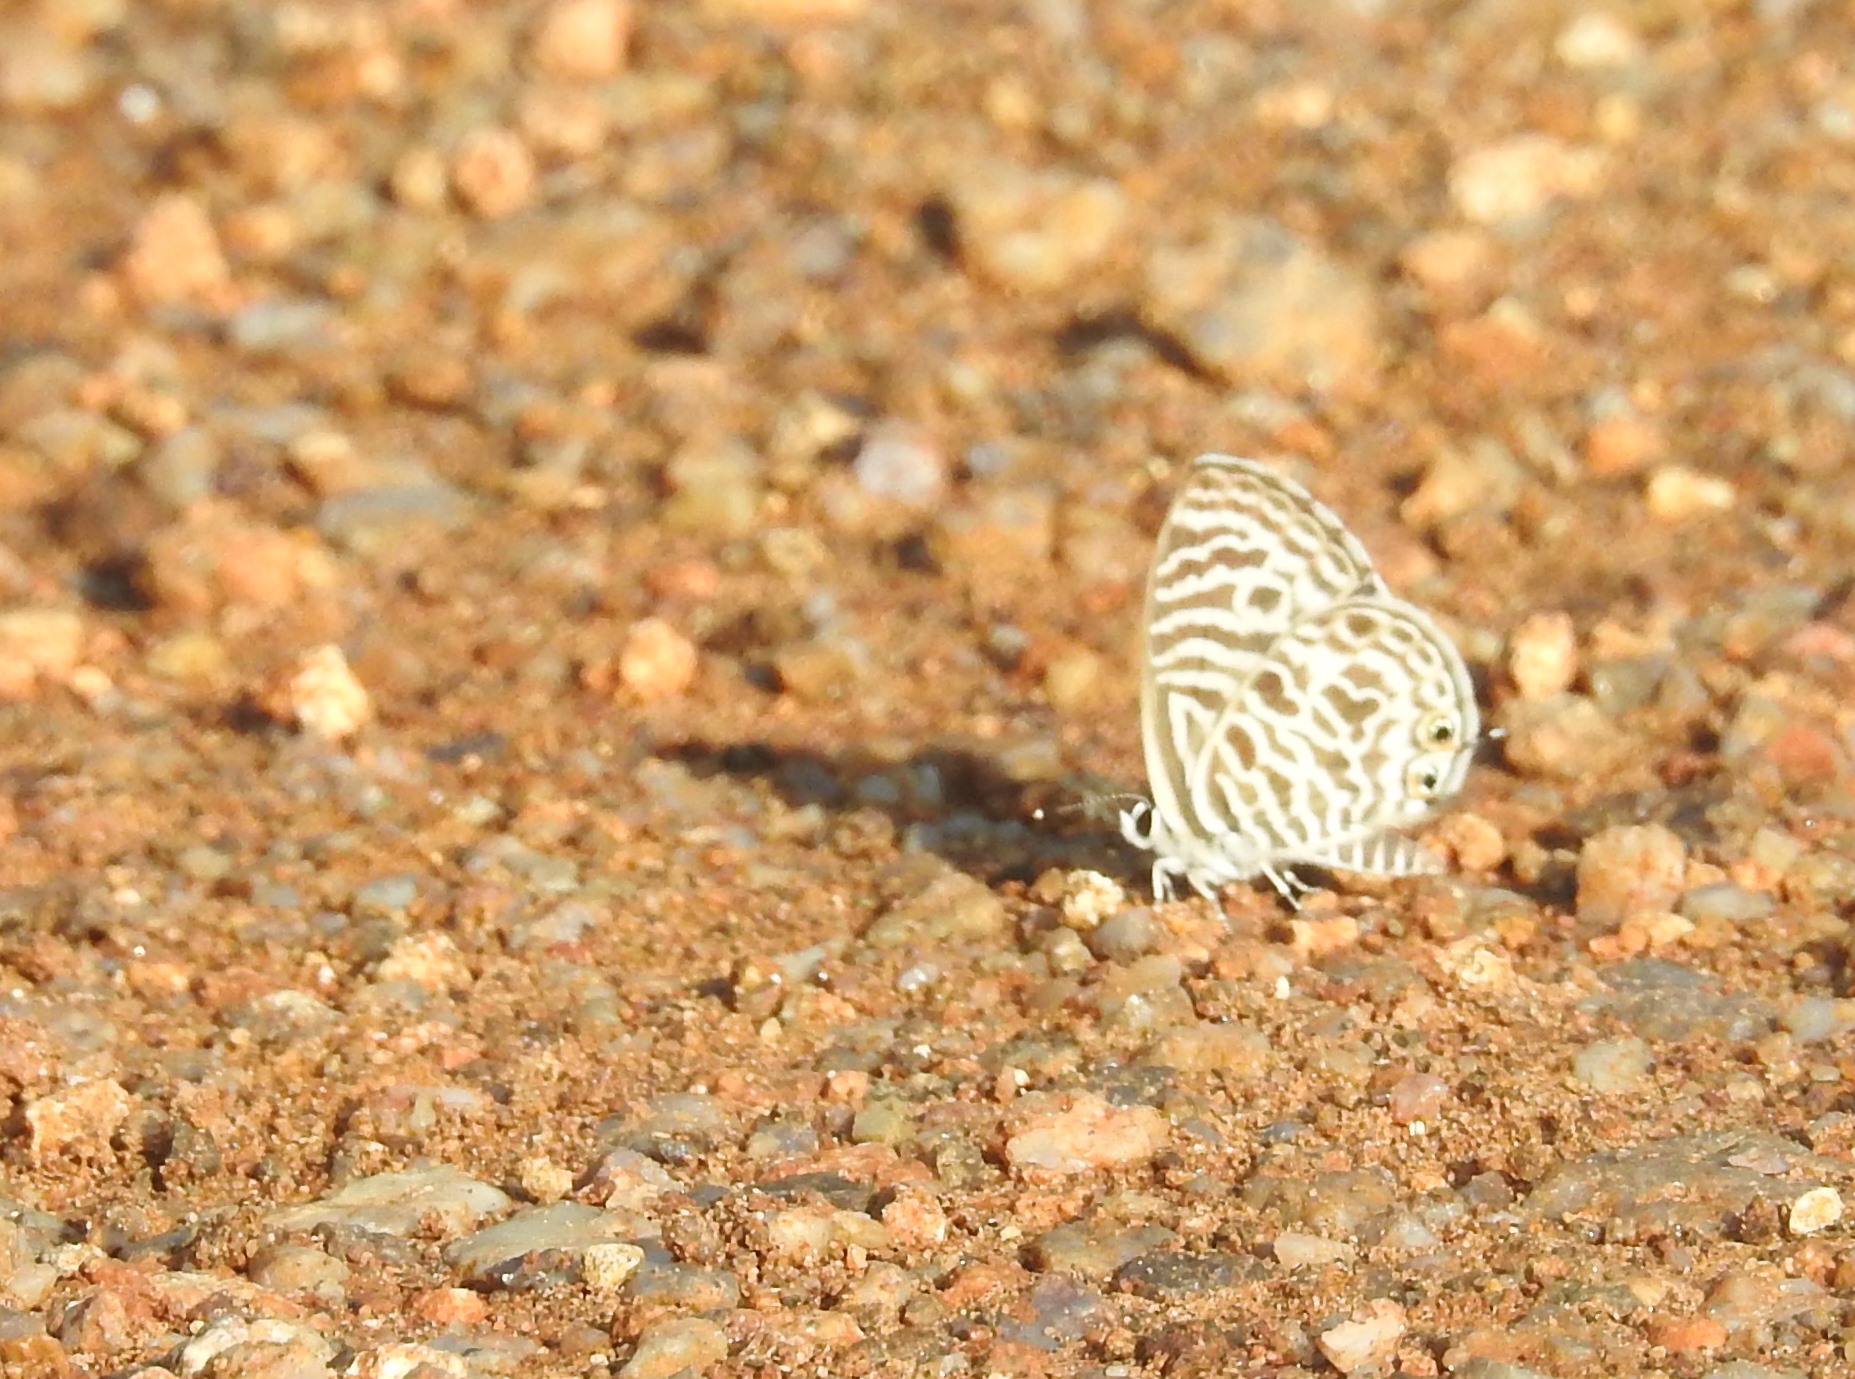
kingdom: Animalia
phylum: Arthropoda
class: Insecta
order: Lepidoptera
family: Lycaenidae
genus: Leptotes
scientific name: Leptotes plinius
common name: Zebra blue
